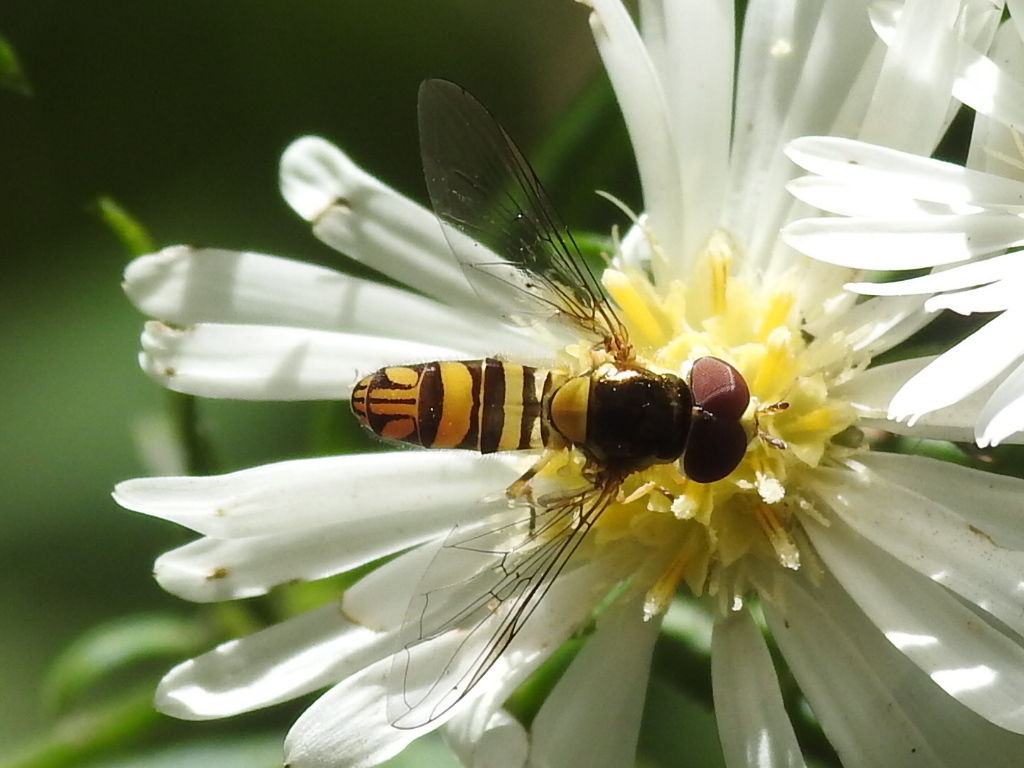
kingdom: Animalia
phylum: Arthropoda
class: Insecta
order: Diptera
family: Syrphidae
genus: Allograpta
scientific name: Allograpta obliqua
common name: Common oblique syrphid
